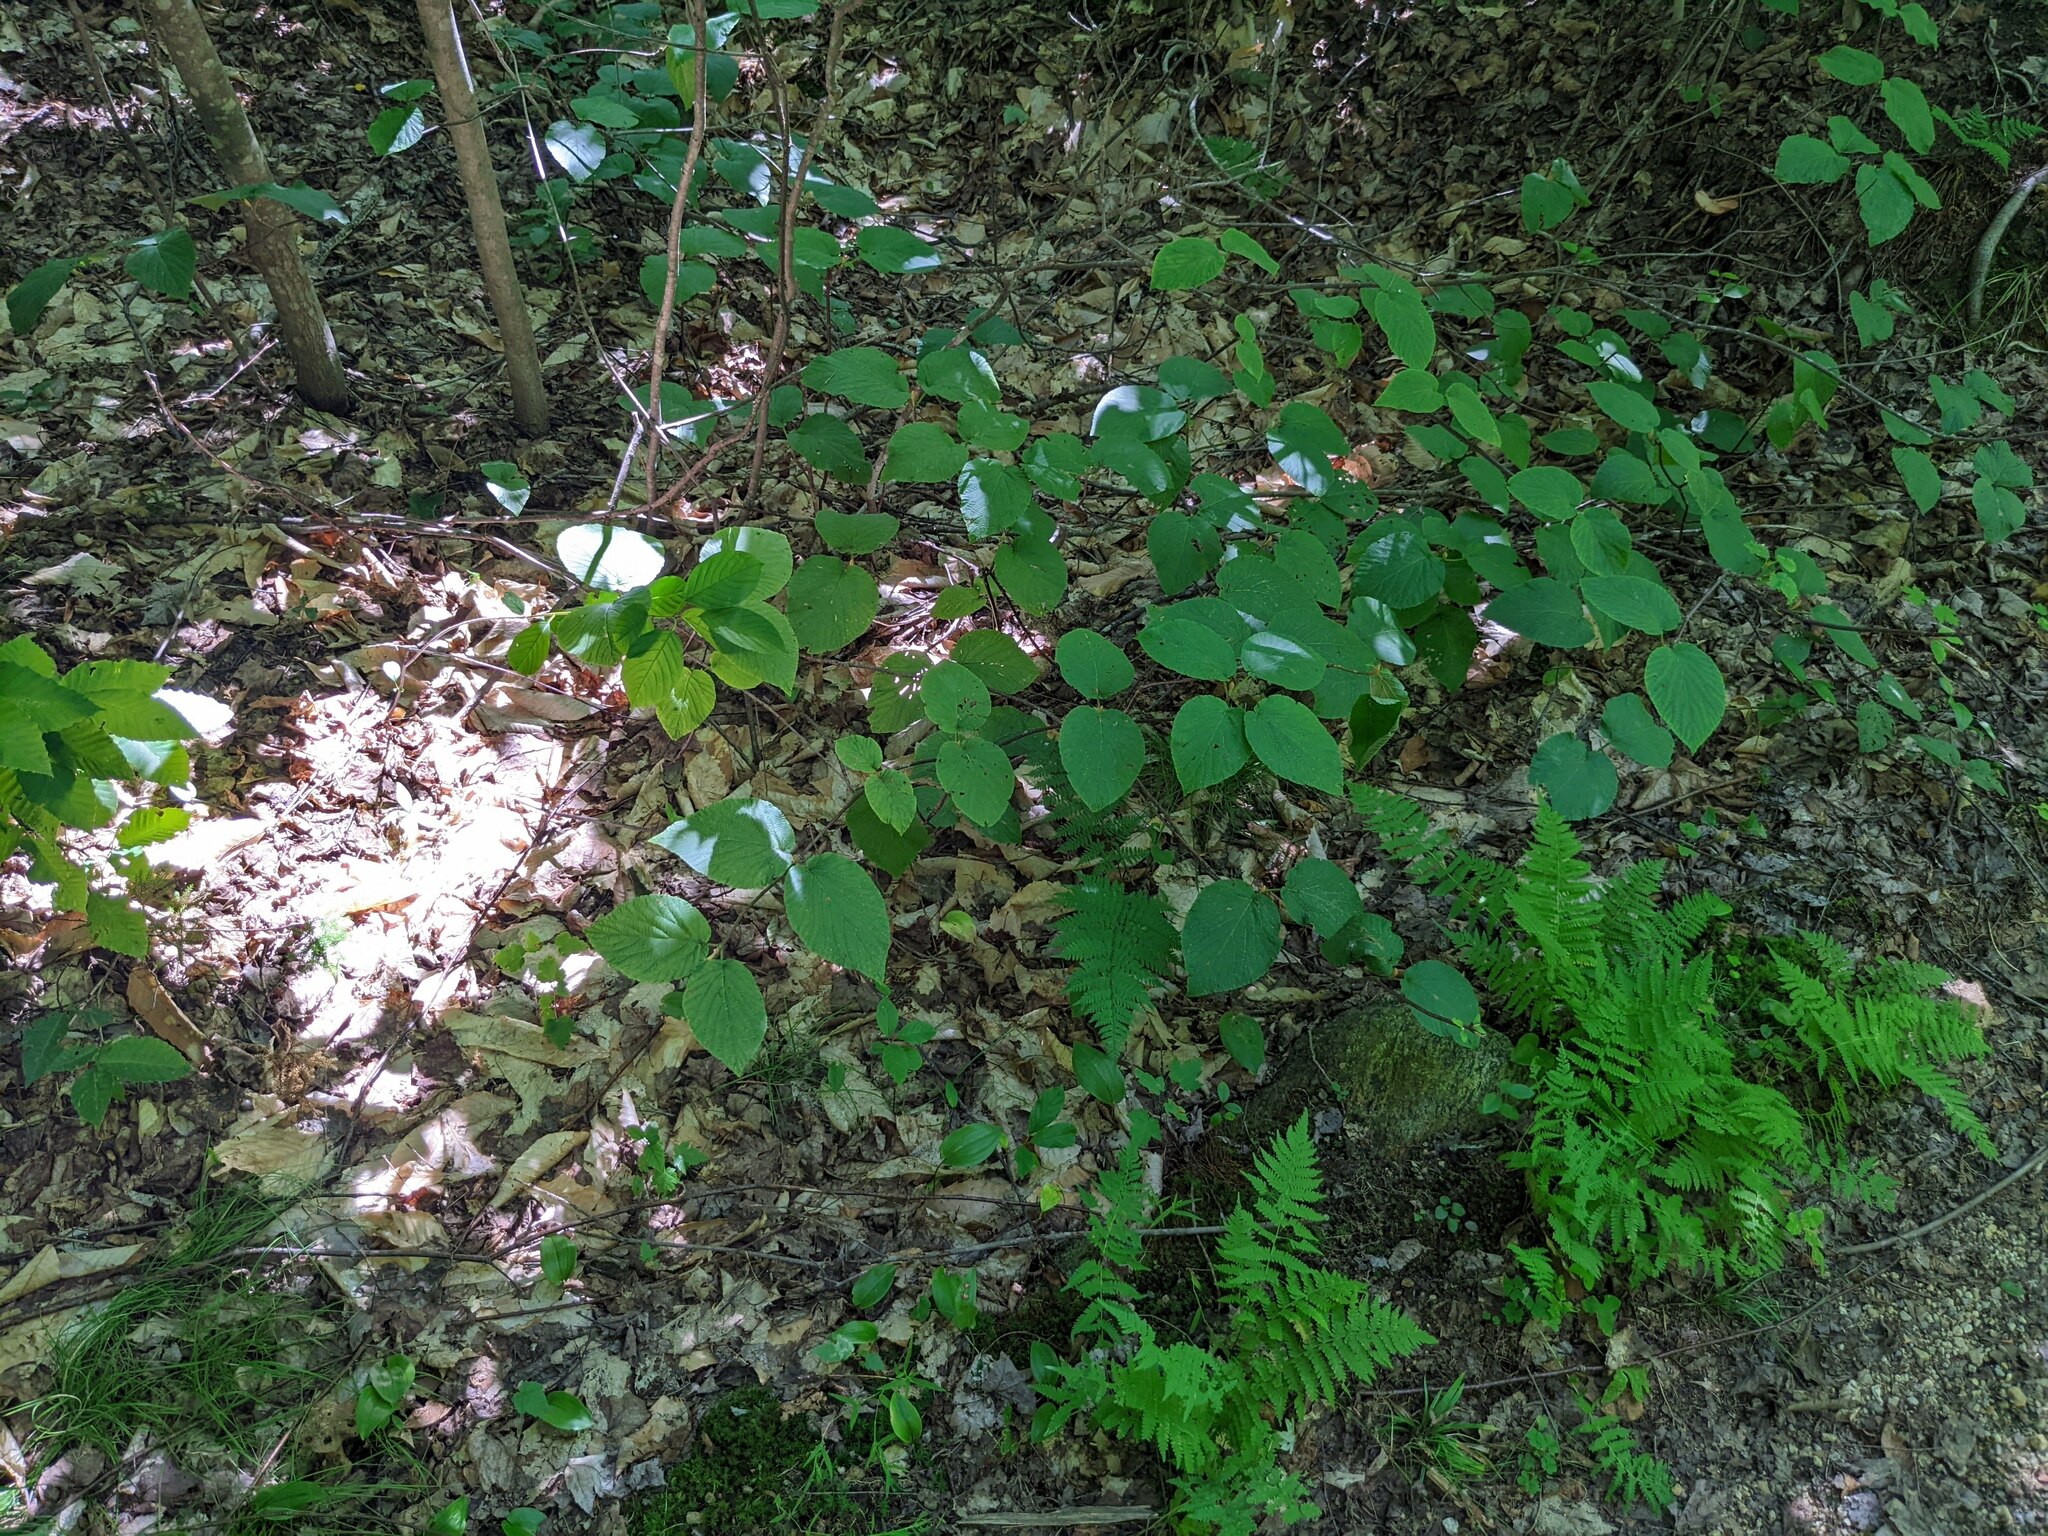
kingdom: Plantae
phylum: Tracheophyta
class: Magnoliopsida
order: Dipsacales
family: Viburnaceae
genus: Viburnum
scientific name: Viburnum lantanoides
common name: Hobblebush
